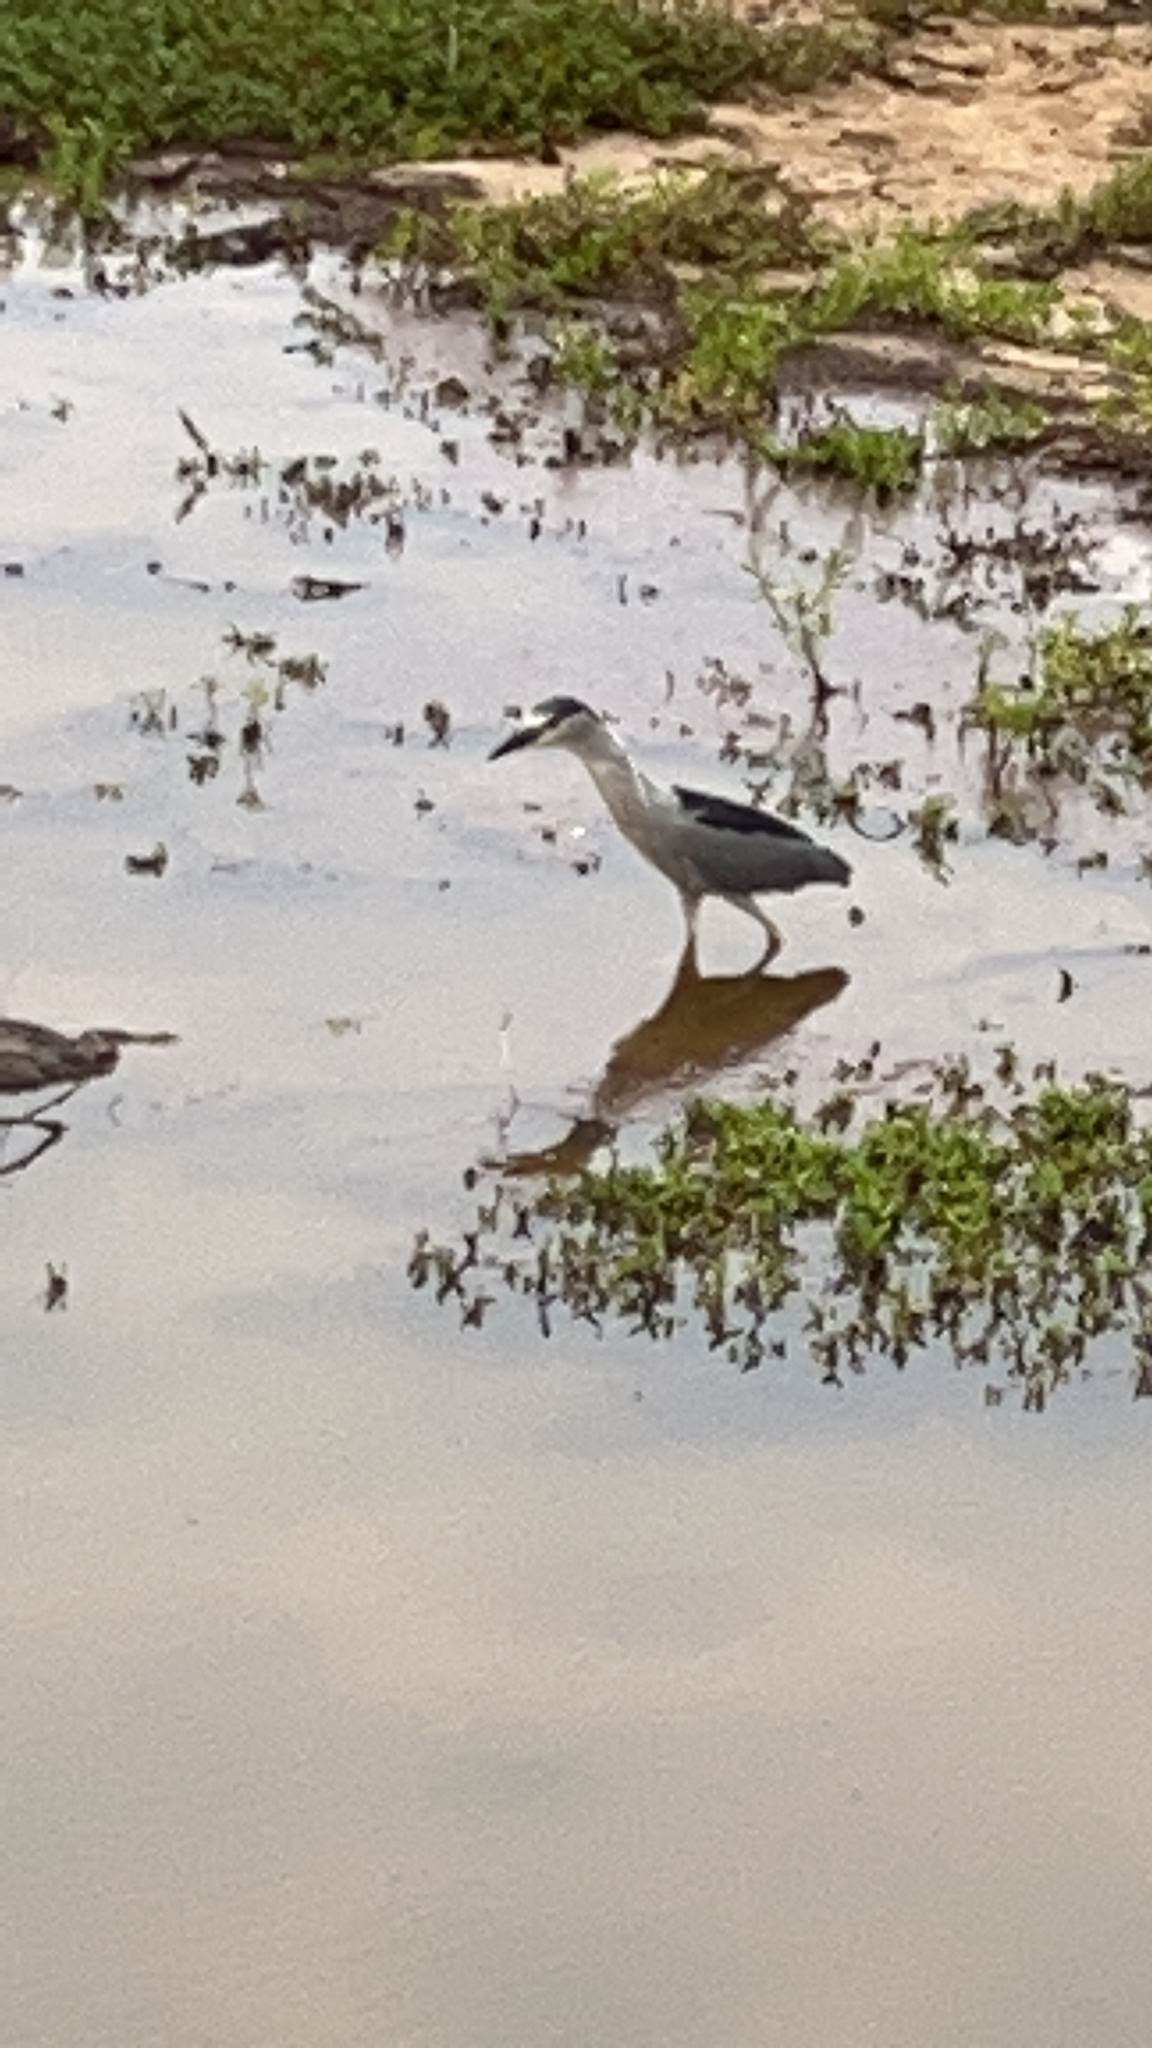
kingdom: Animalia
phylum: Chordata
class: Aves
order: Pelecaniformes
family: Ardeidae
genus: Nycticorax
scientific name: Nycticorax nycticorax
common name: Black-crowned night heron
